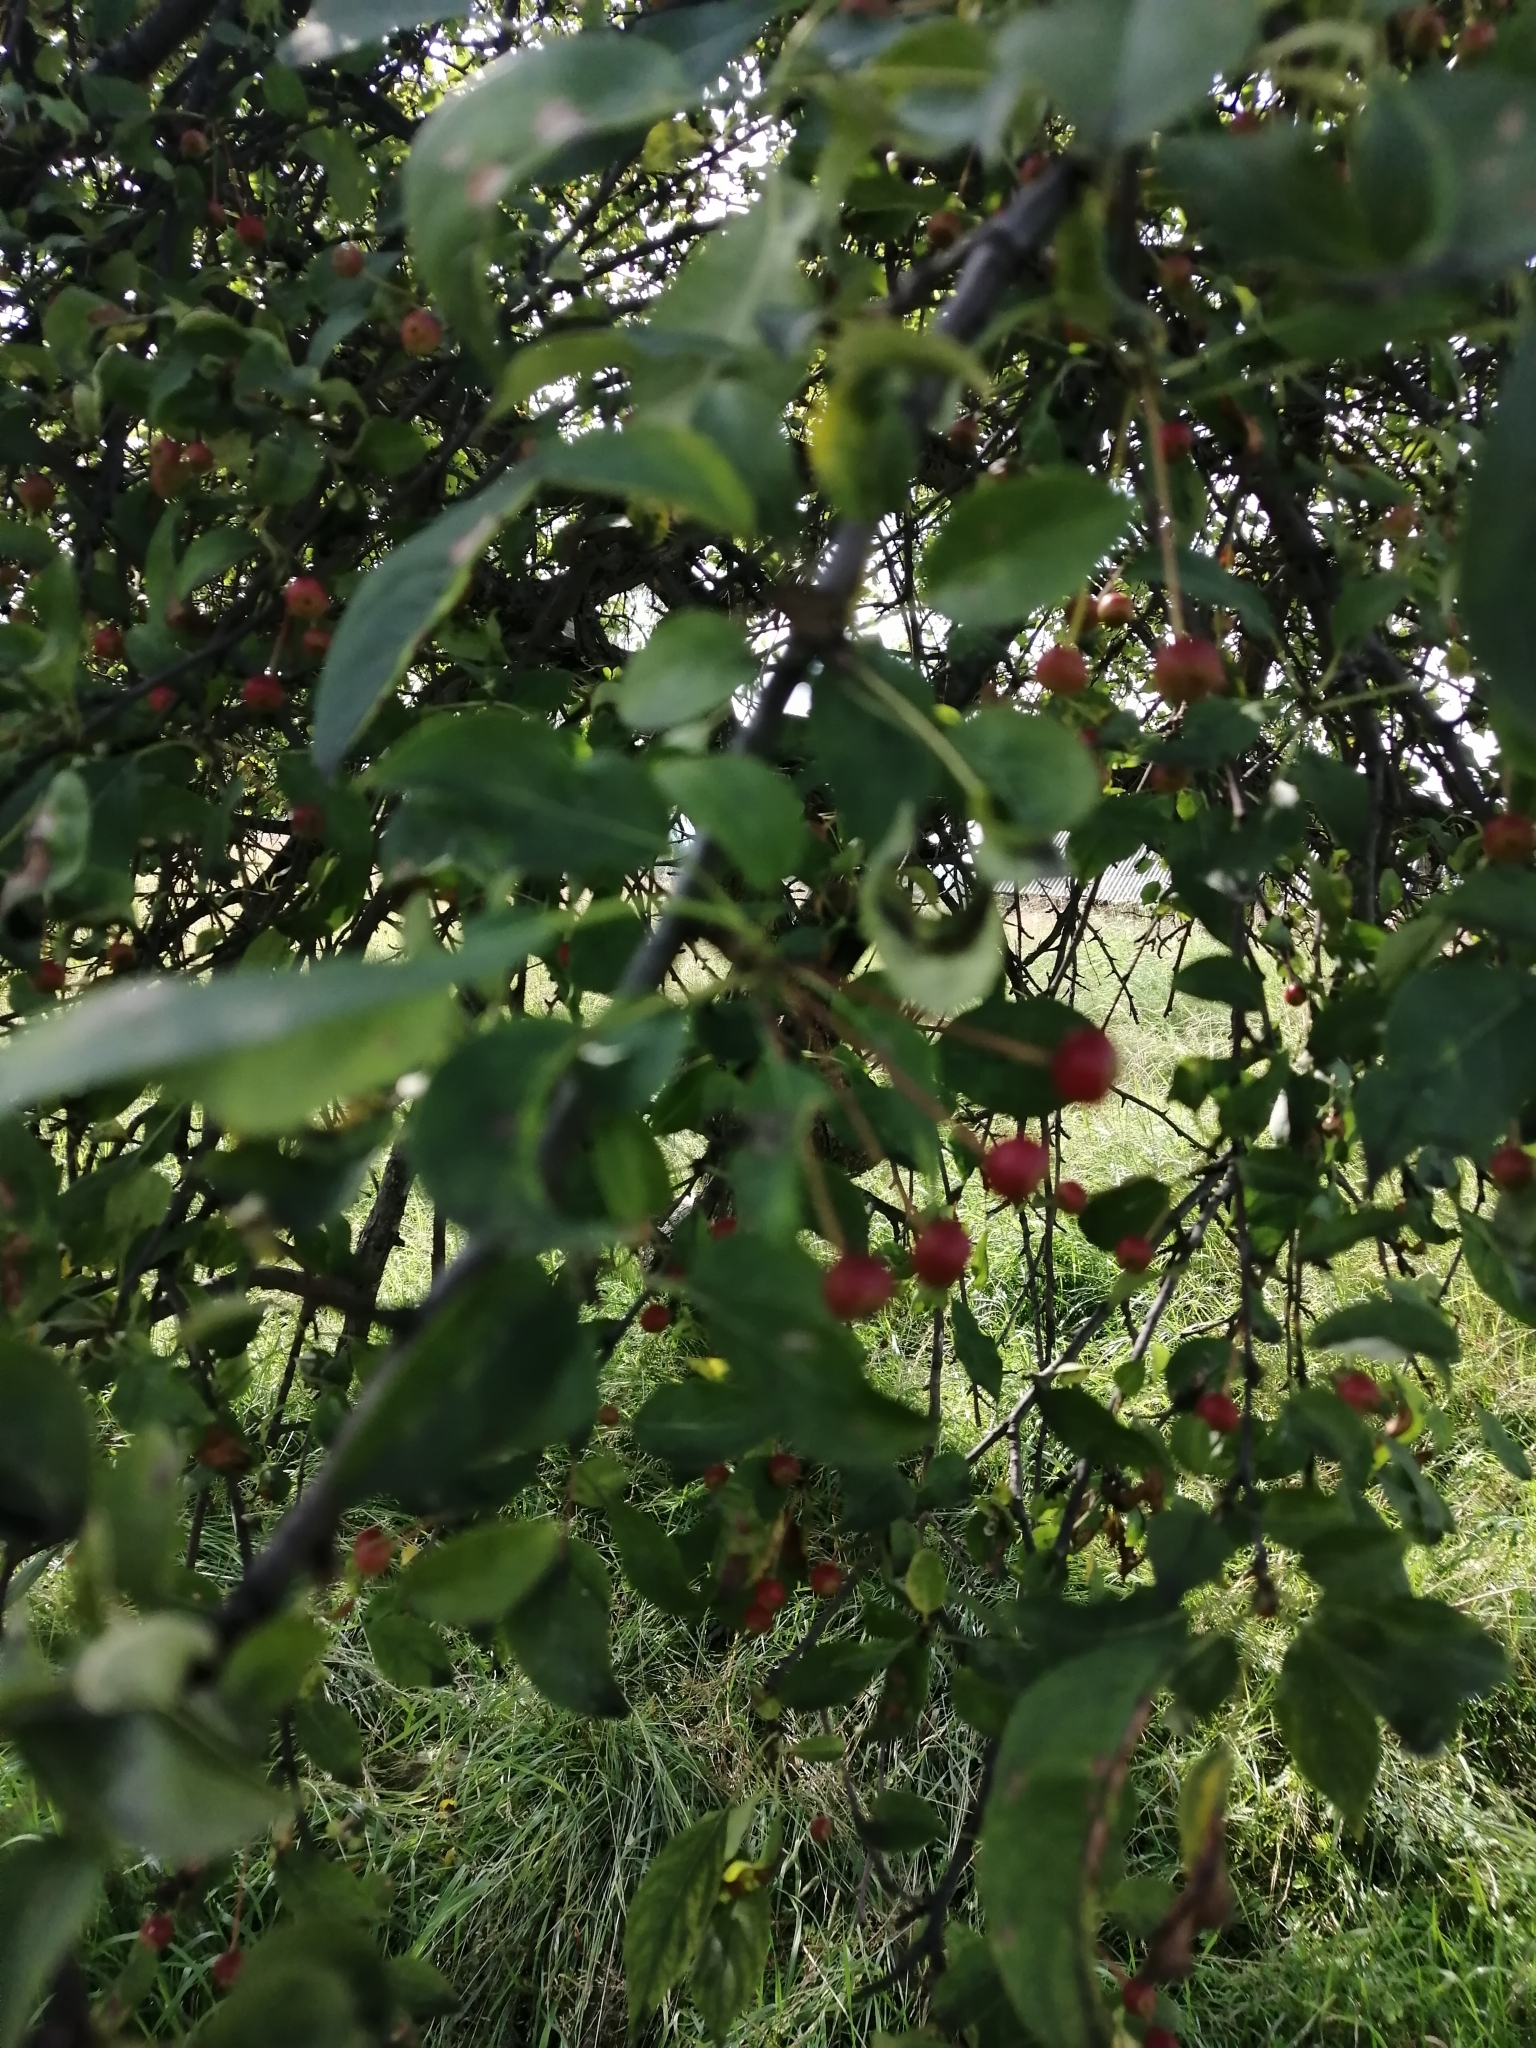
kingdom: Plantae
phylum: Tracheophyta
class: Magnoliopsida
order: Rosales
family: Rosaceae
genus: Malus
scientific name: Malus baccata
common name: Siberian crab
